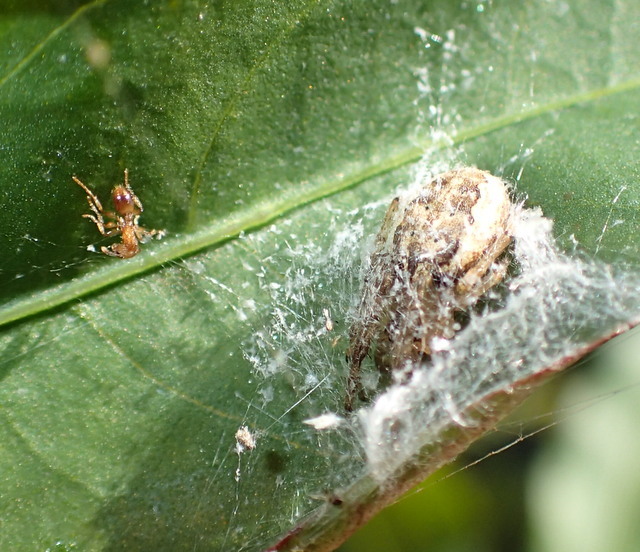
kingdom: Animalia
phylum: Arthropoda
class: Arachnida
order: Araneae
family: Araneidae
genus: Larinioides
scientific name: Larinioides cornutus
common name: Furrow orbweaver
